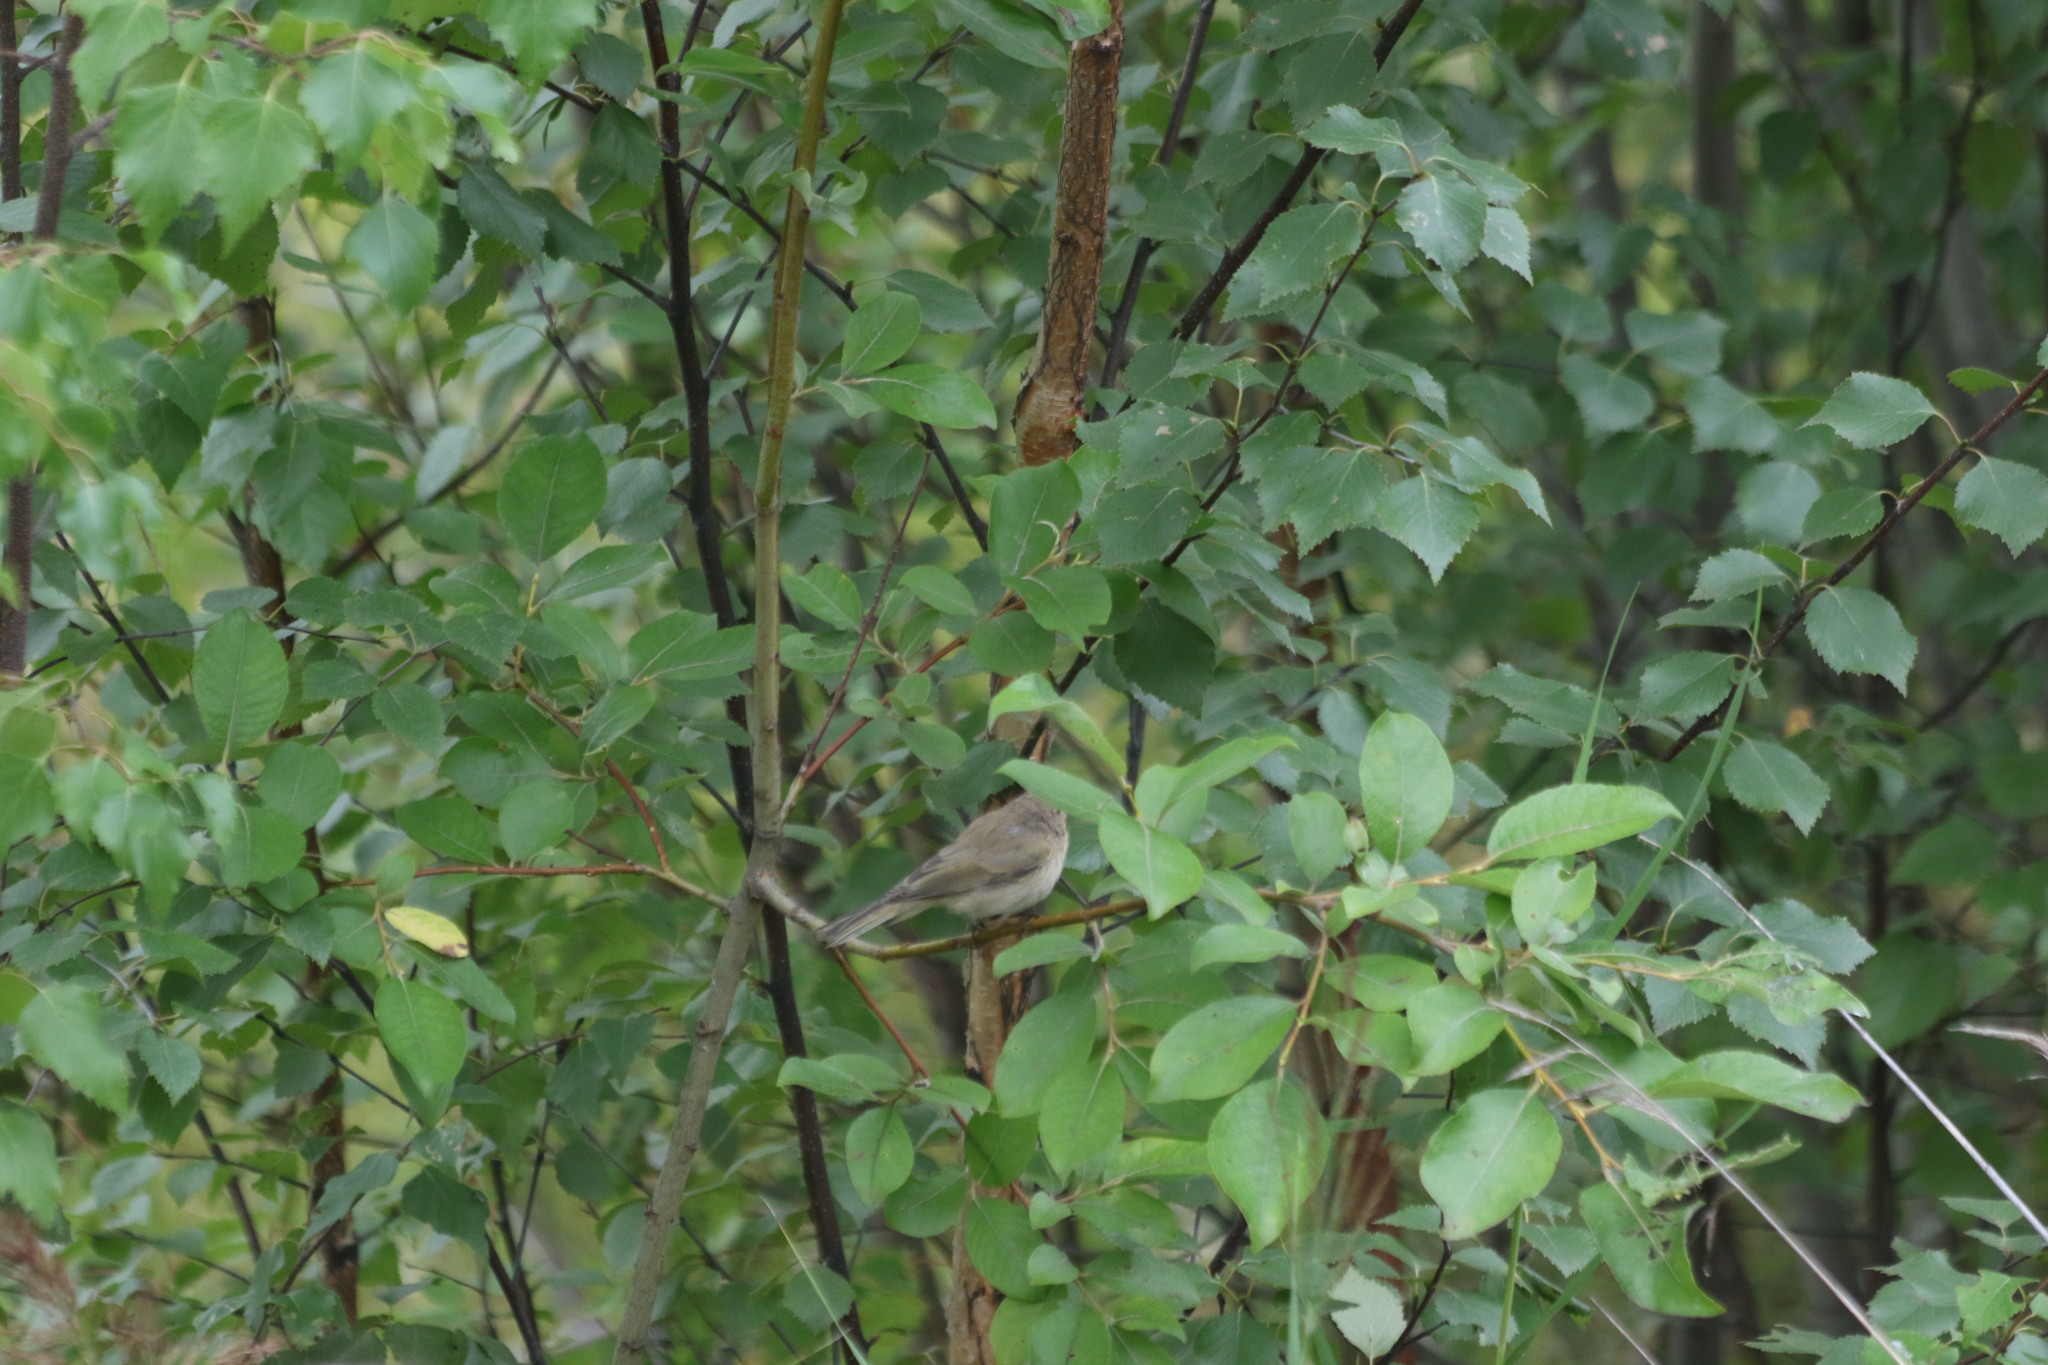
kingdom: Animalia
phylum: Chordata
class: Aves
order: Passeriformes
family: Phylloscopidae
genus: Phylloscopus
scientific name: Phylloscopus collybita
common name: Common chiffchaff
